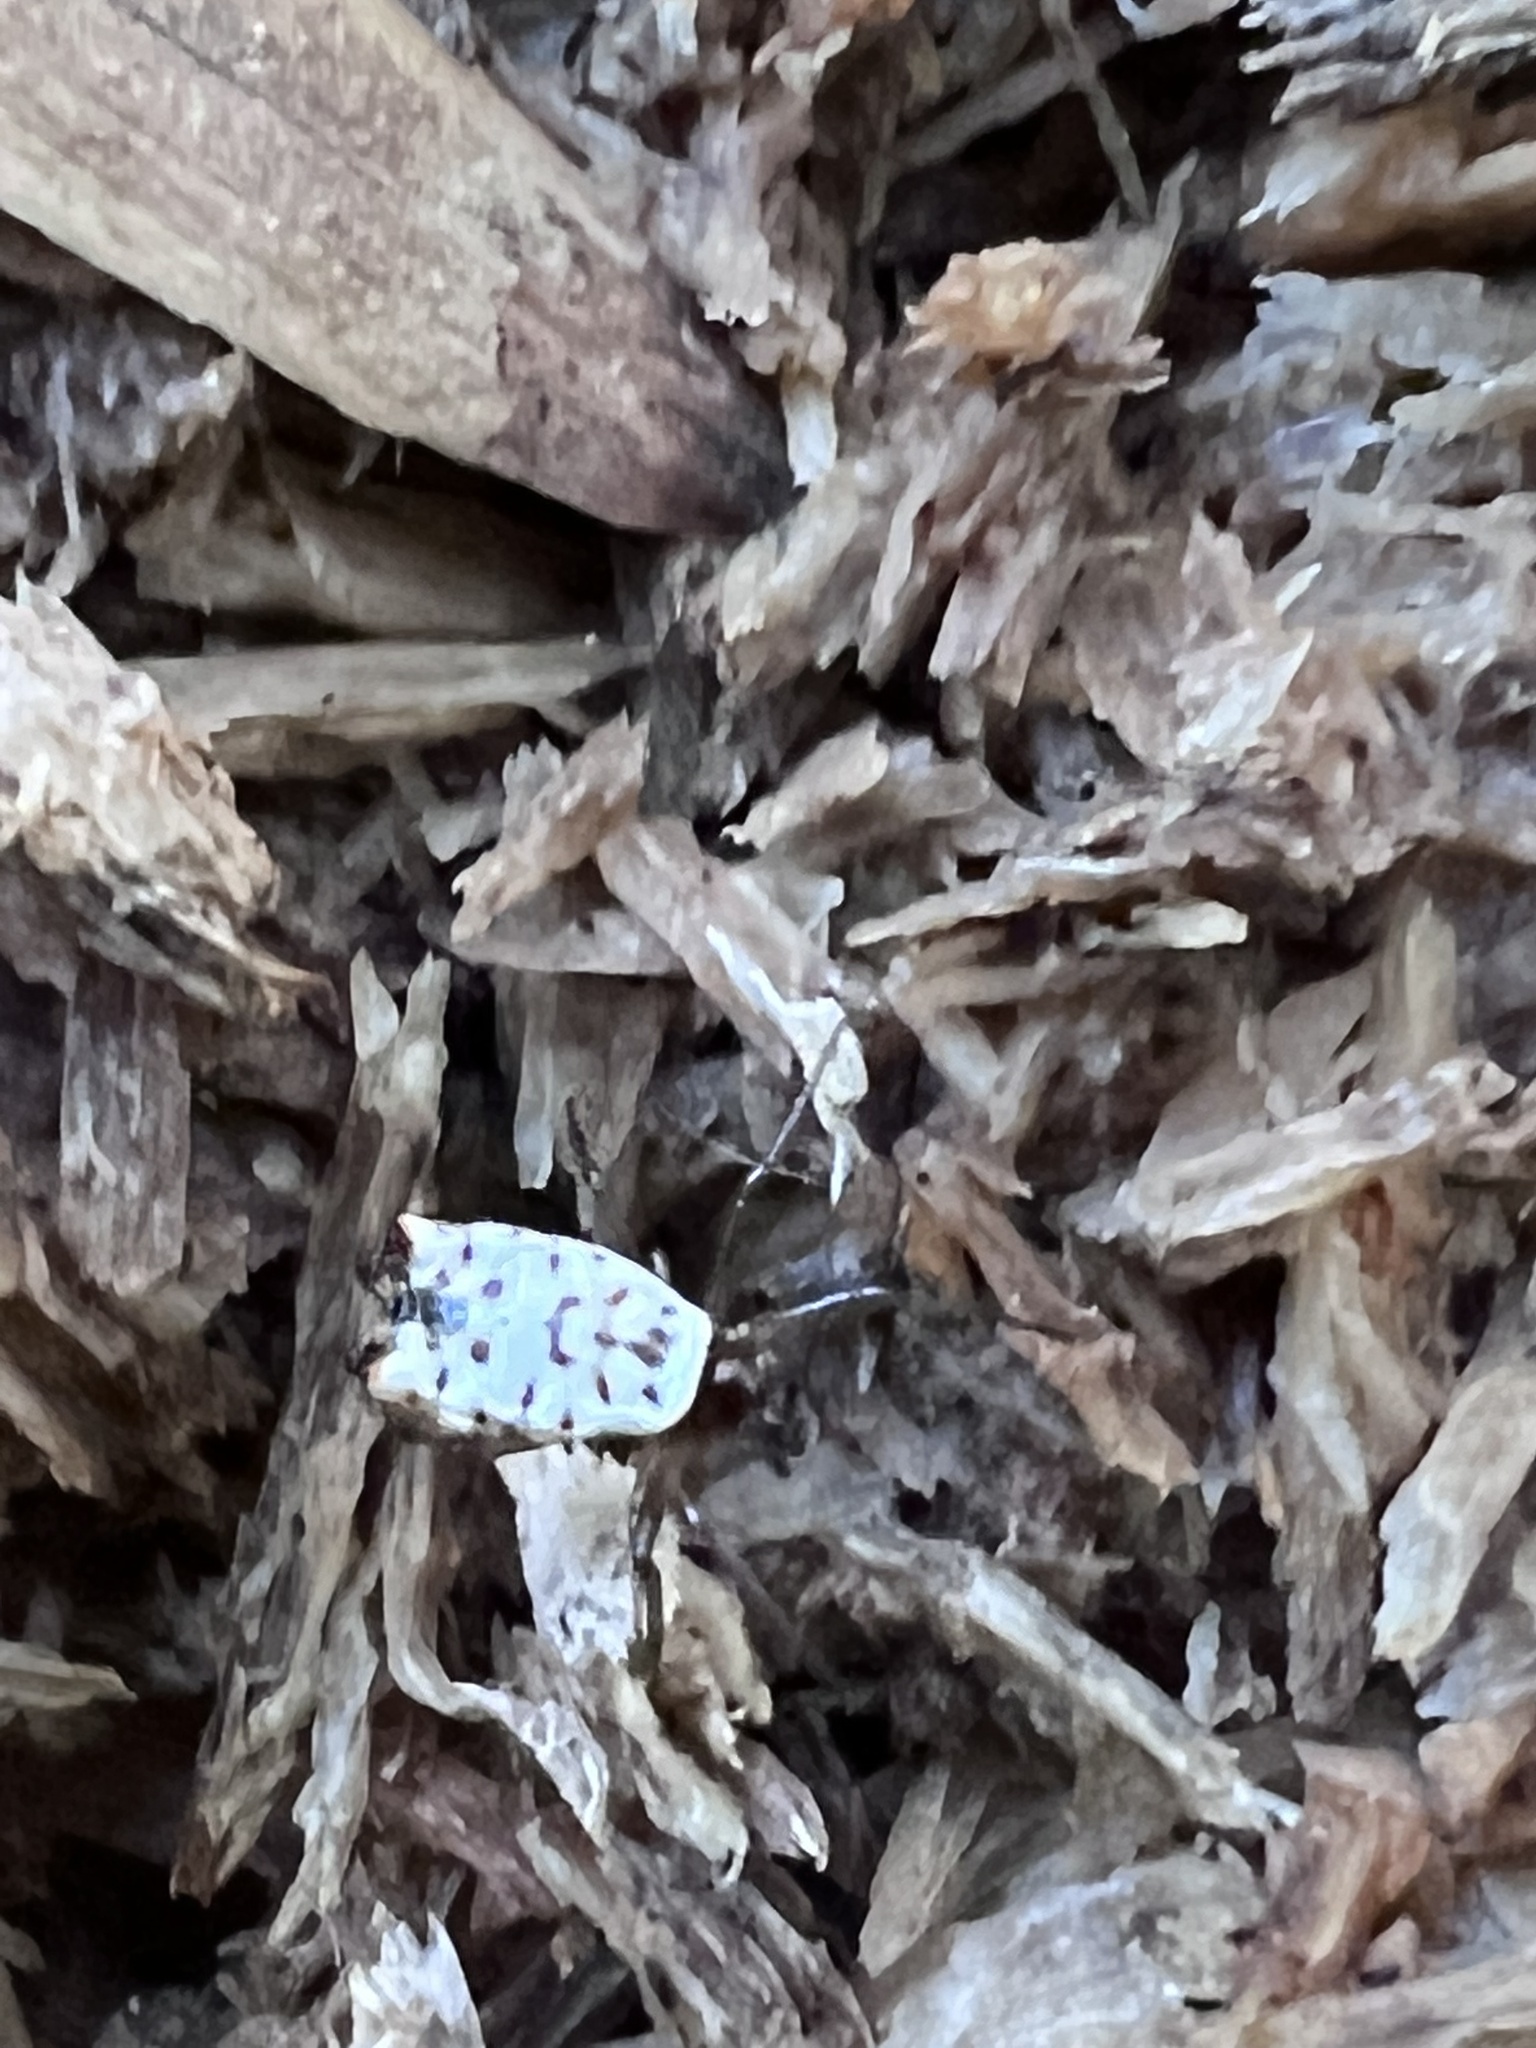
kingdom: Animalia
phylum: Arthropoda
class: Arachnida
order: Araneae
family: Araneidae
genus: Micrathena
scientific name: Micrathena mitrata
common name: Orb weavers
